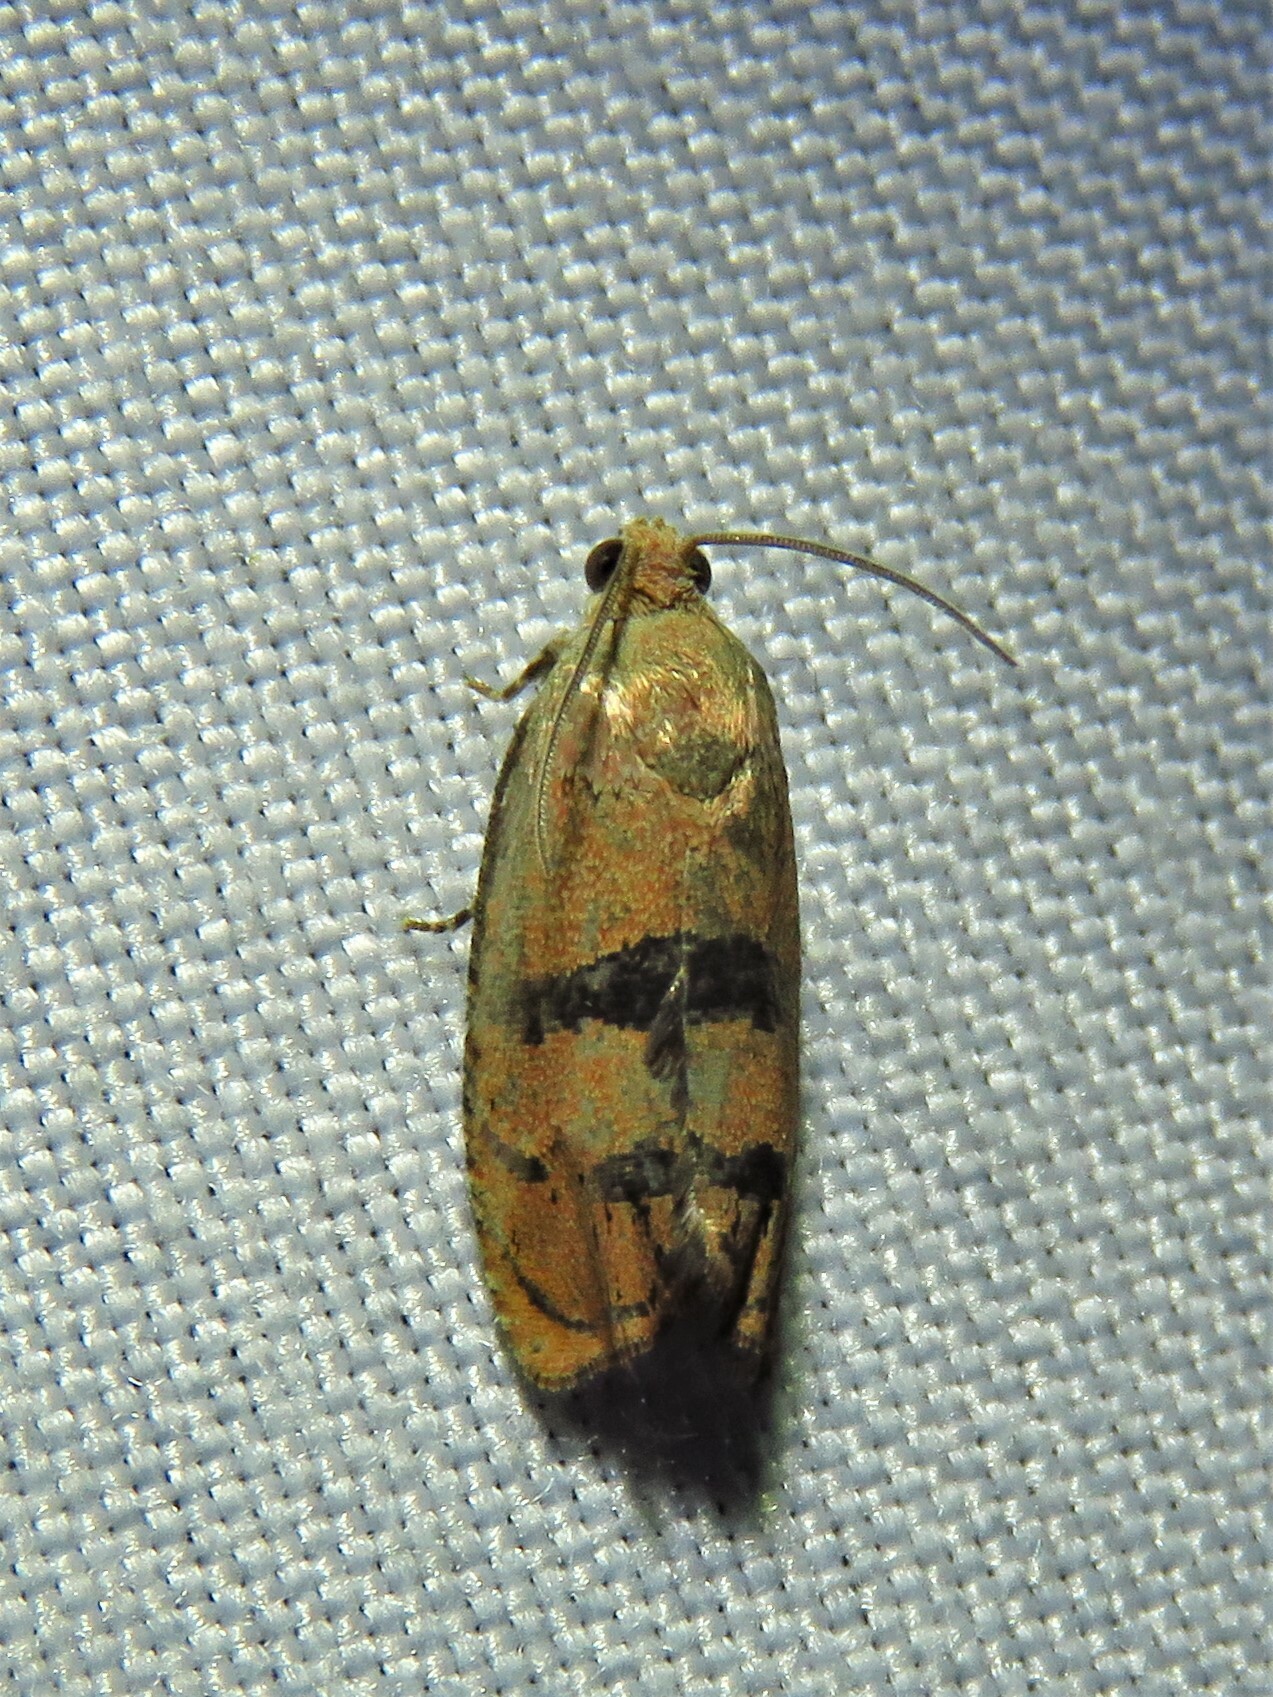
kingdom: Animalia
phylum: Arthropoda
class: Insecta
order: Lepidoptera
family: Tortricidae
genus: Cydia
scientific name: Cydia latiferreana
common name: Filbertworm moth
